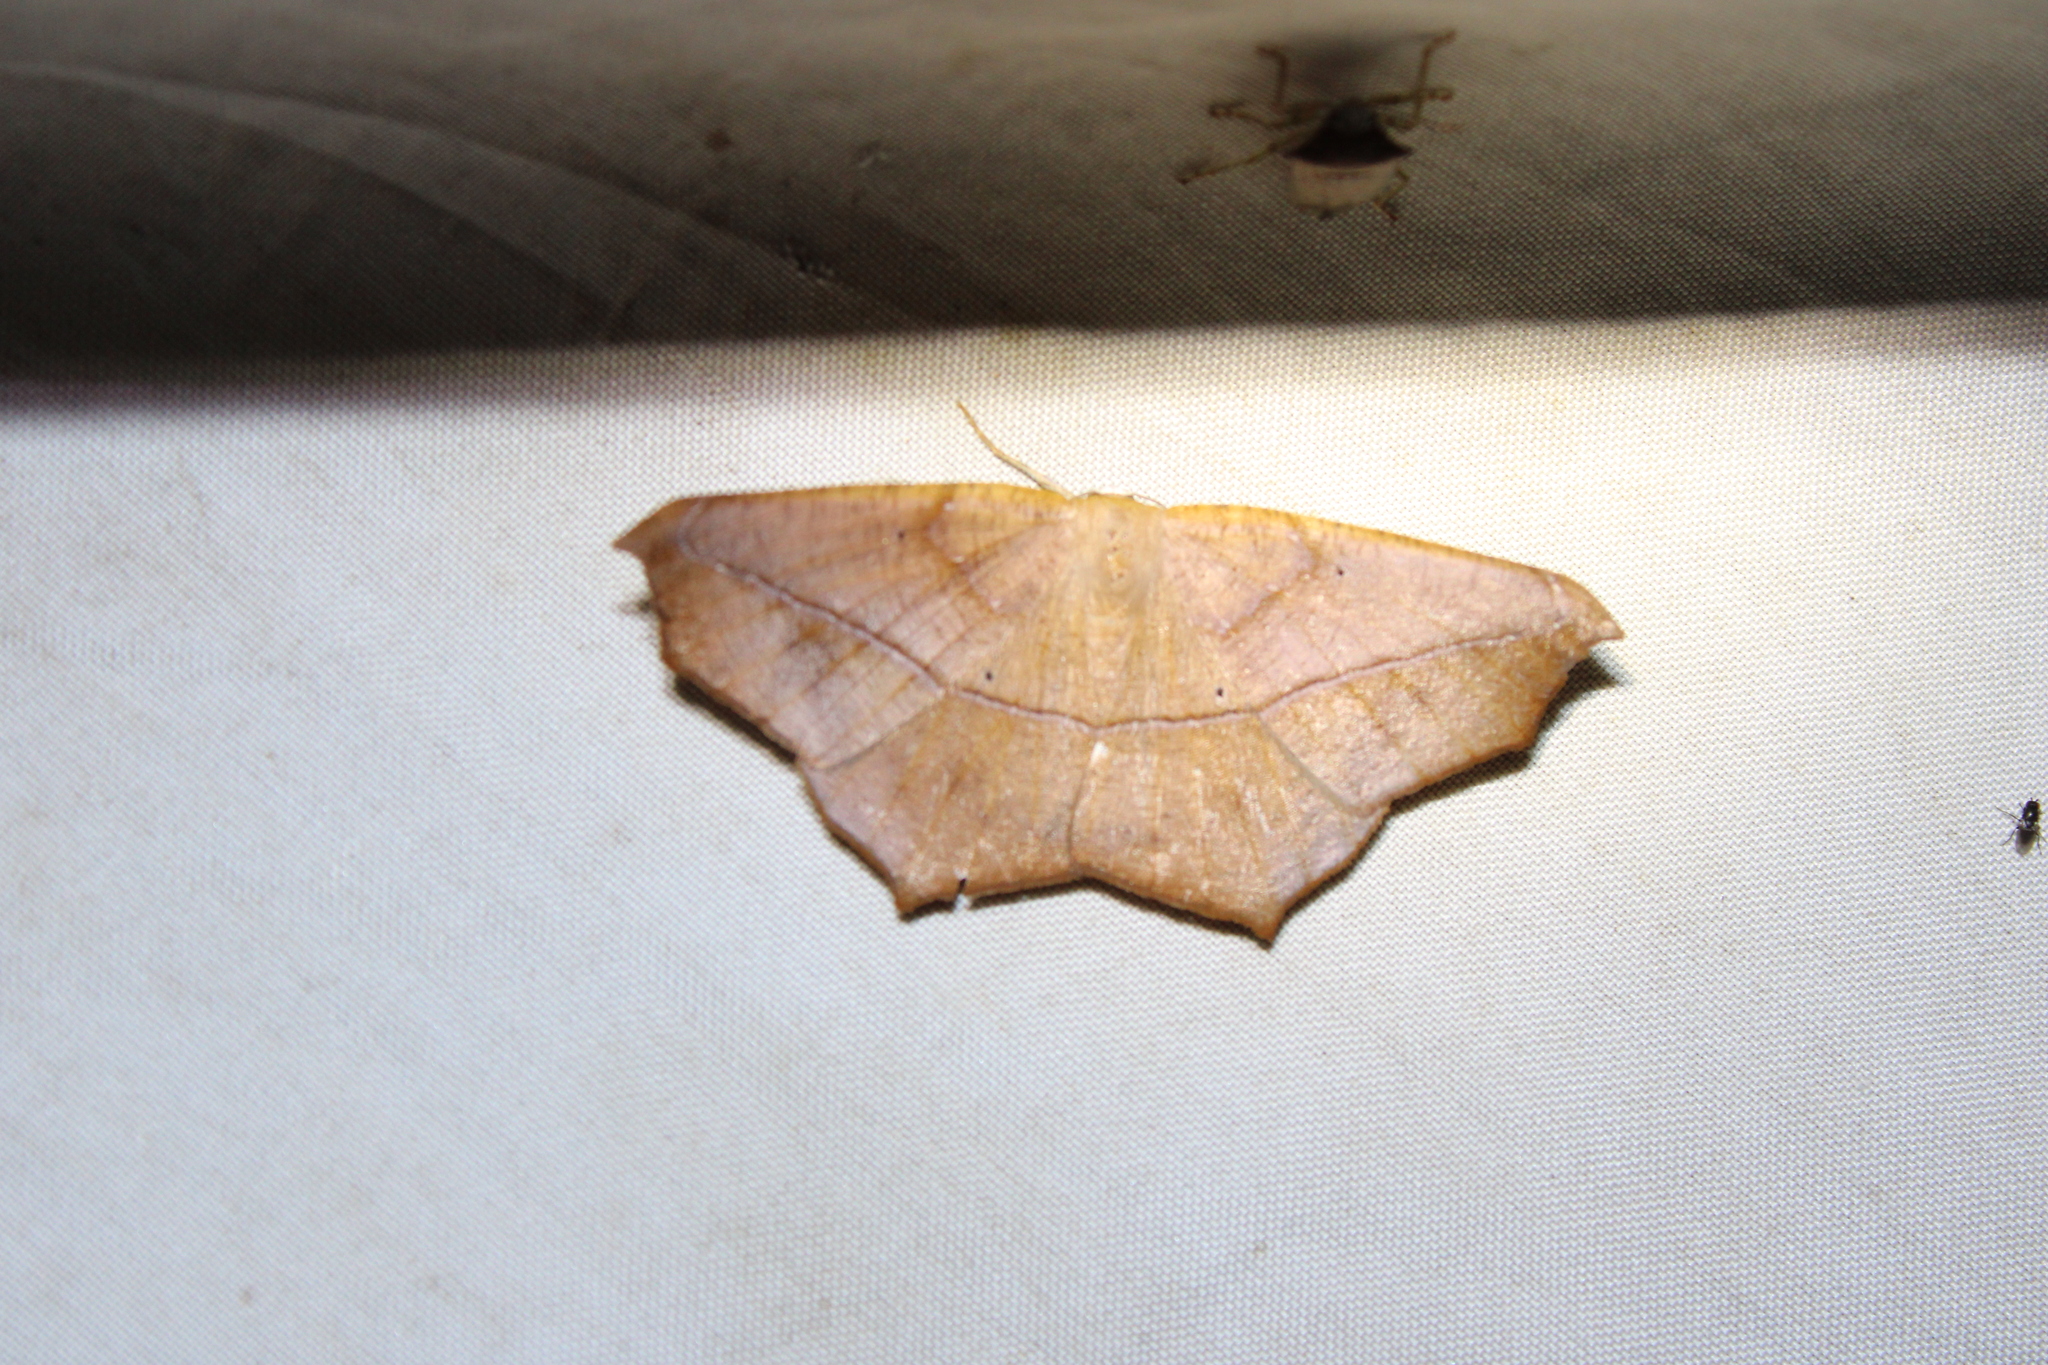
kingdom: Animalia
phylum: Arthropoda
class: Insecta
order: Lepidoptera
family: Geometridae
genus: Prochoerodes
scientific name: Prochoerodes lineola
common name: Large maple spanworm
